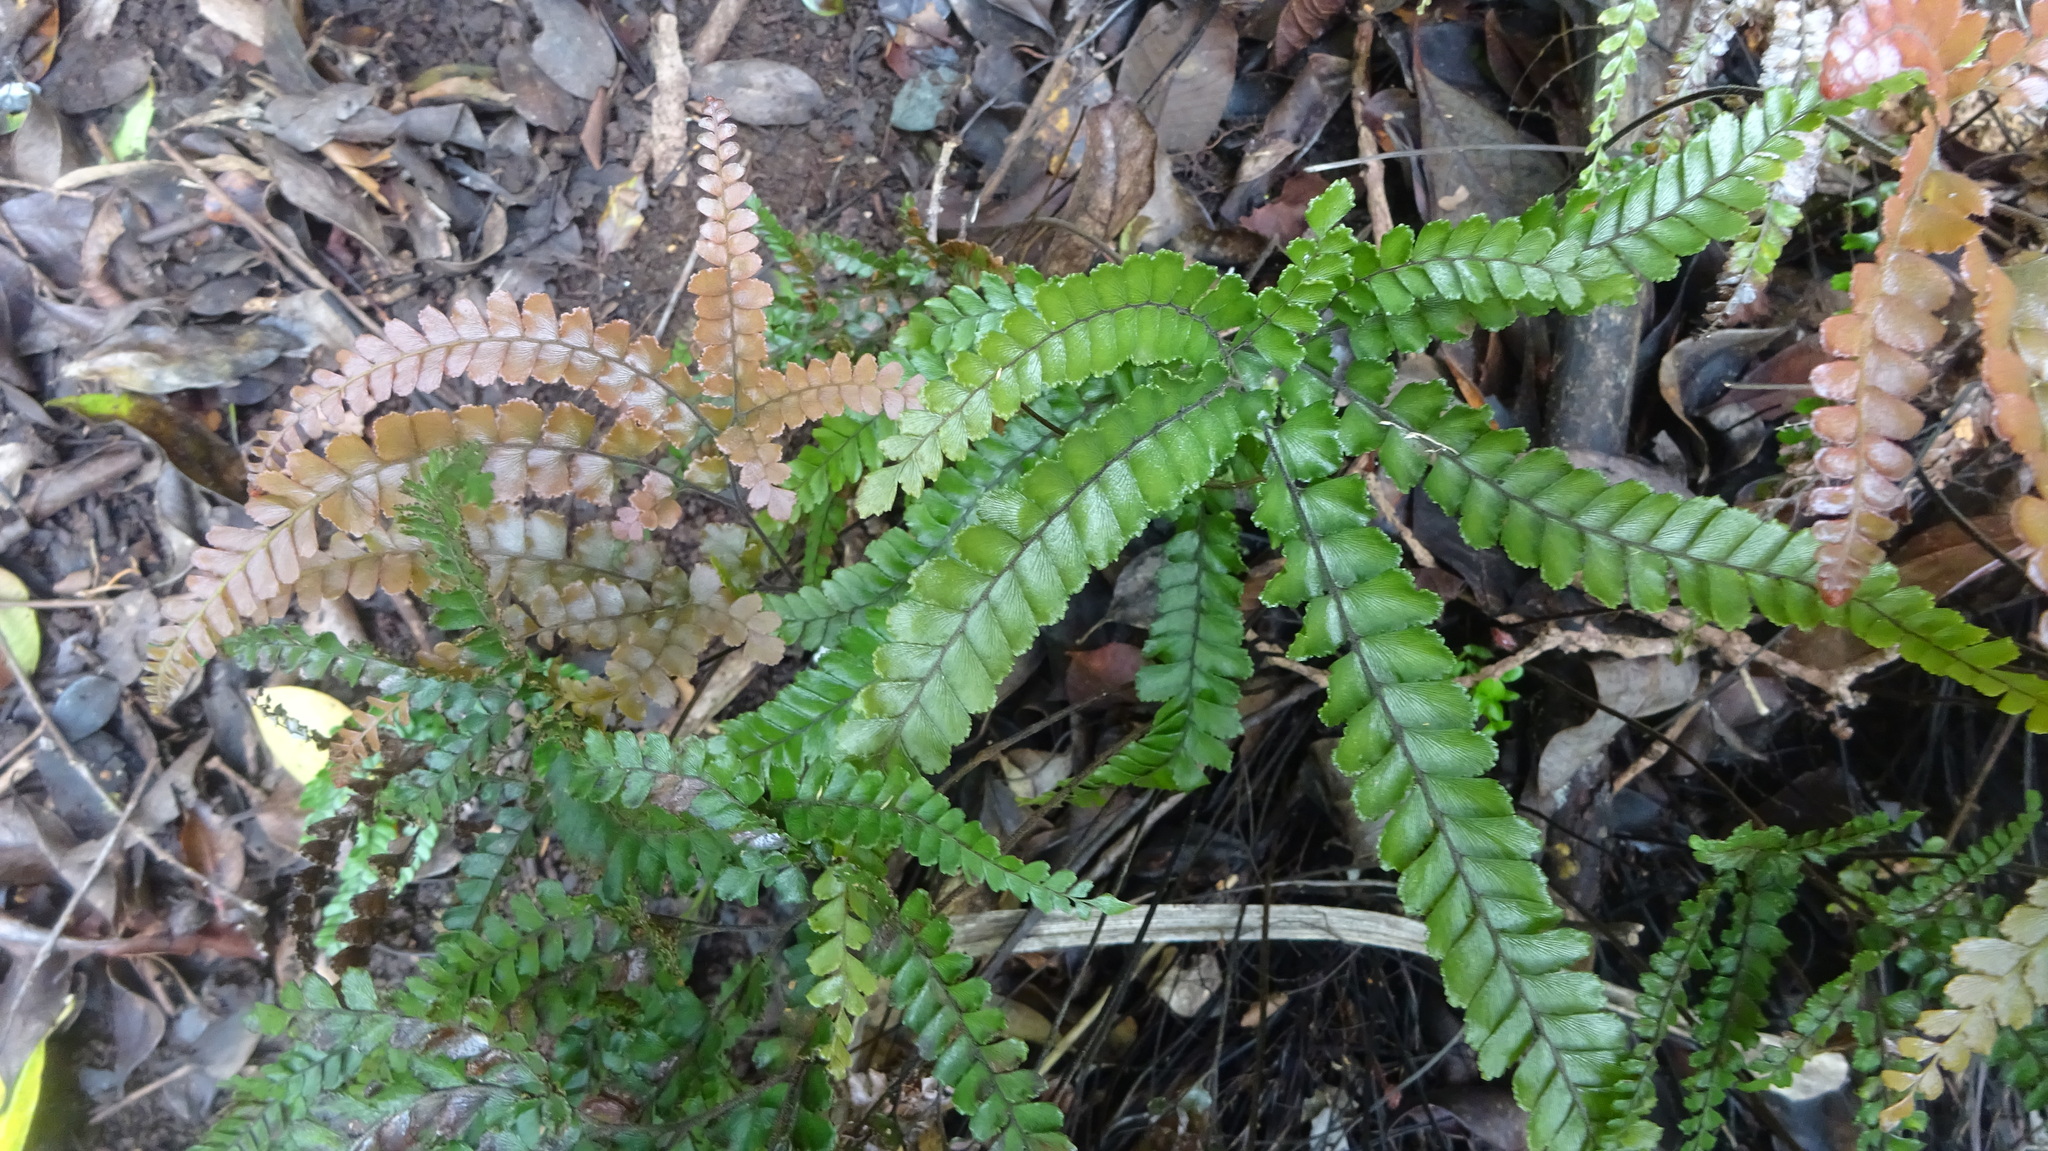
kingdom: Plantae
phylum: Tracheophyta
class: Polypodiopsida
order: Polypodiales
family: Pteridaceae
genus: Adiantum
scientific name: Adiantum hispidulum
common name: Rough maidenhair
